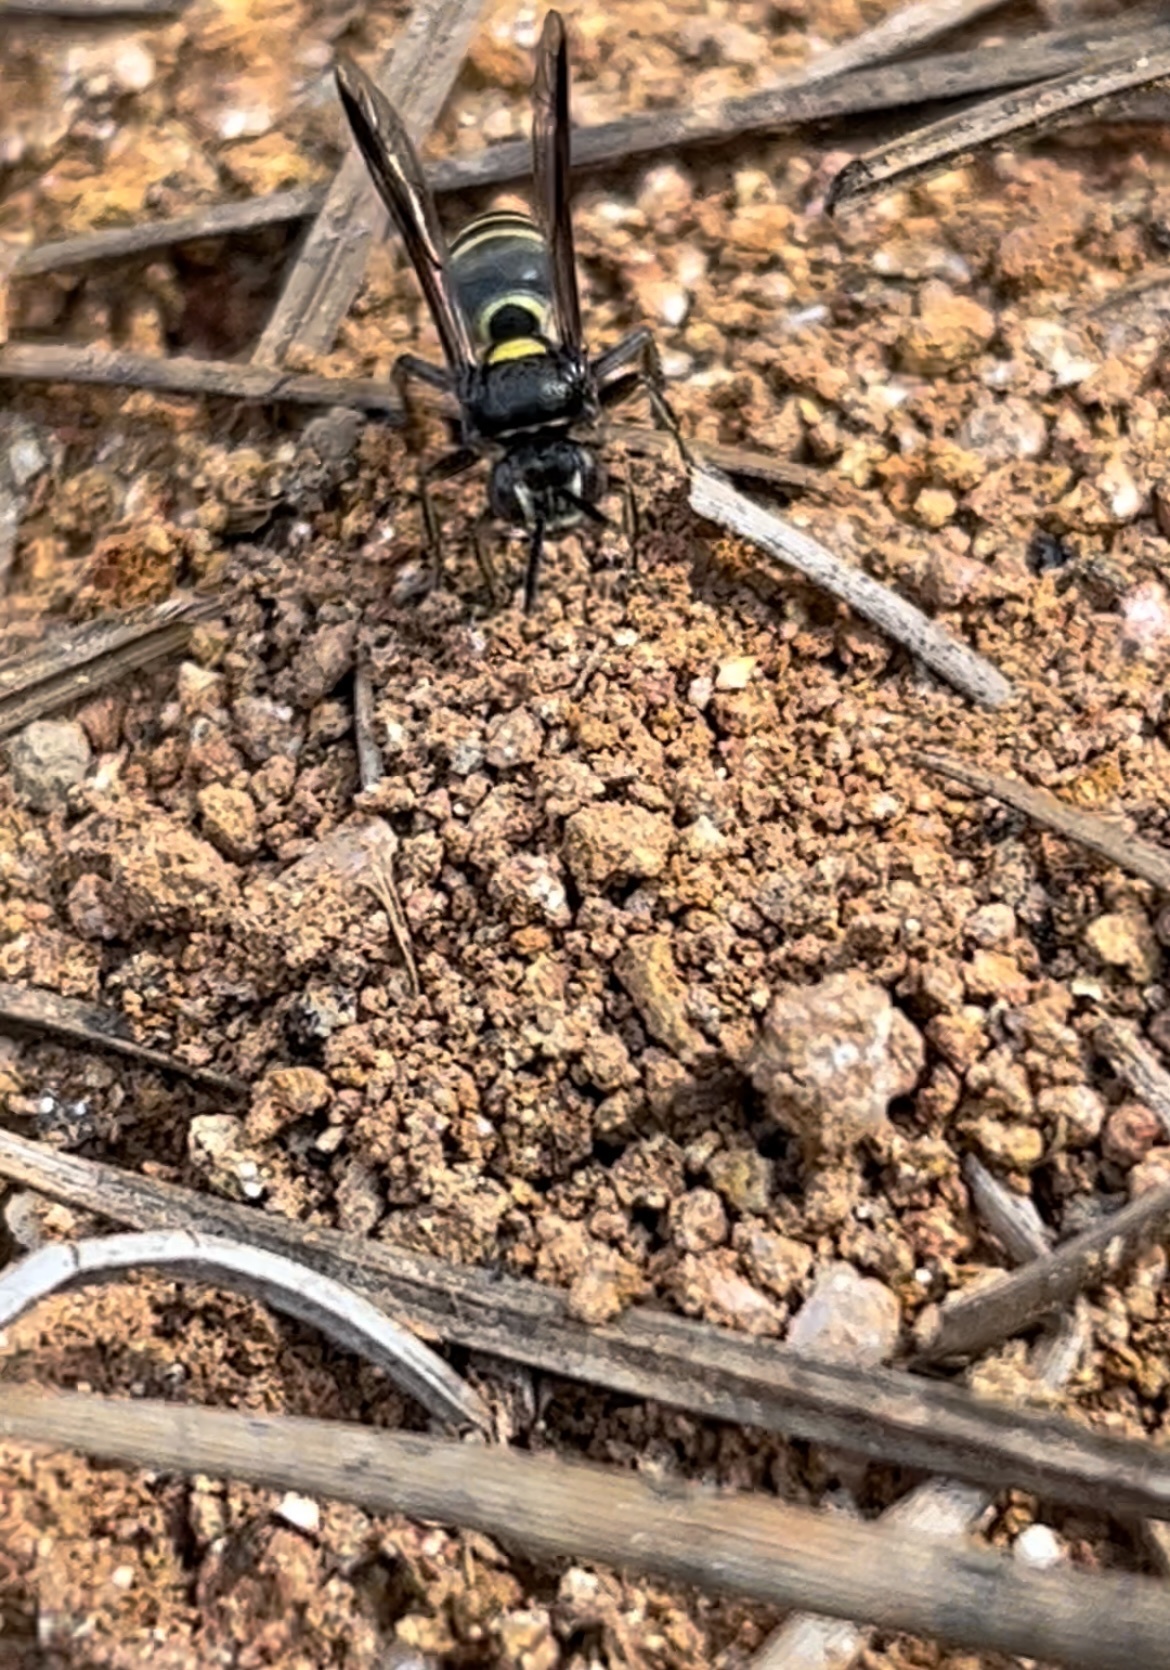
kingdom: Animalia
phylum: Arthropoda
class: Insecta
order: Hymenoptera
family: Crabronidae
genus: Hoplisoides
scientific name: Hoplisoides semipunctatus
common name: Sphecid wasp
